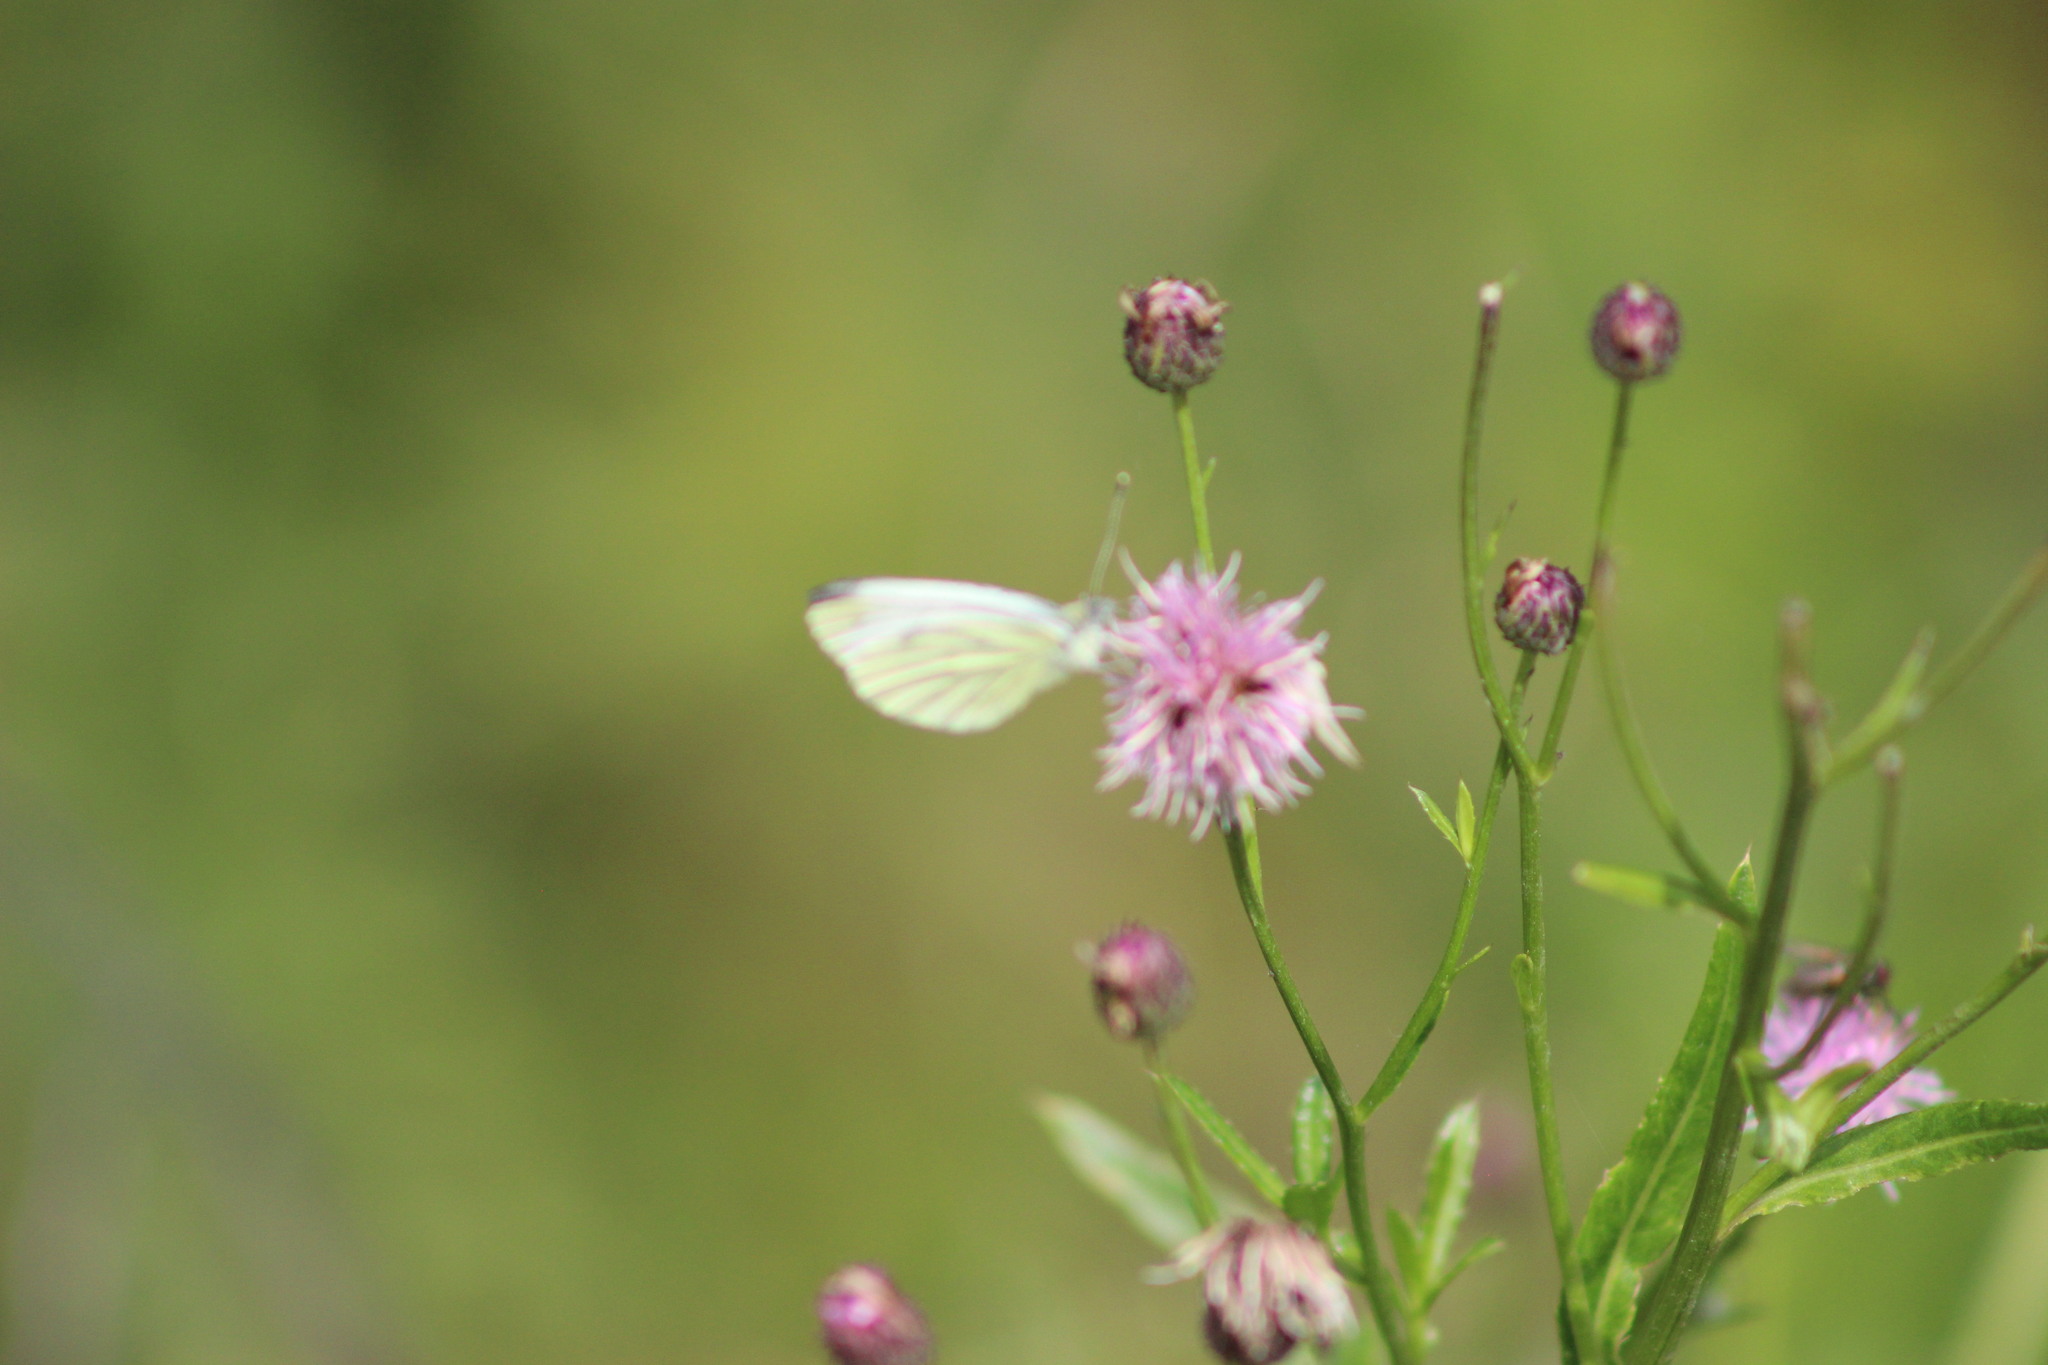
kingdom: Animalia
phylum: Arthropoda
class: Insecta
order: Lepidoptera
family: Pieridae
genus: Pieris
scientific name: Pieris napi
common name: Green-veined white
